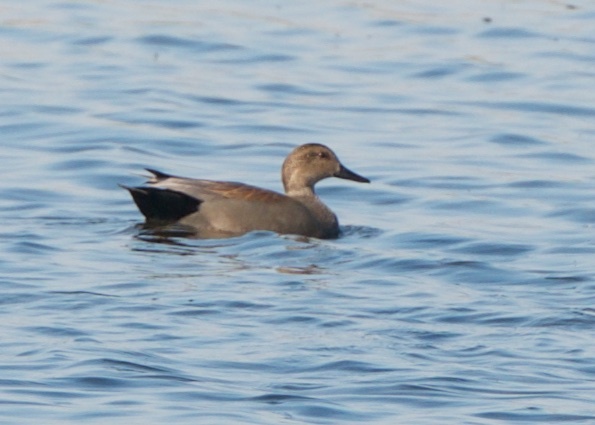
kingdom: Animalia
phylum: Chordata
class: Aves
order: Anseriformes
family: Anatidae
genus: Mareca
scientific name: Mareca strepera
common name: Gadwall
